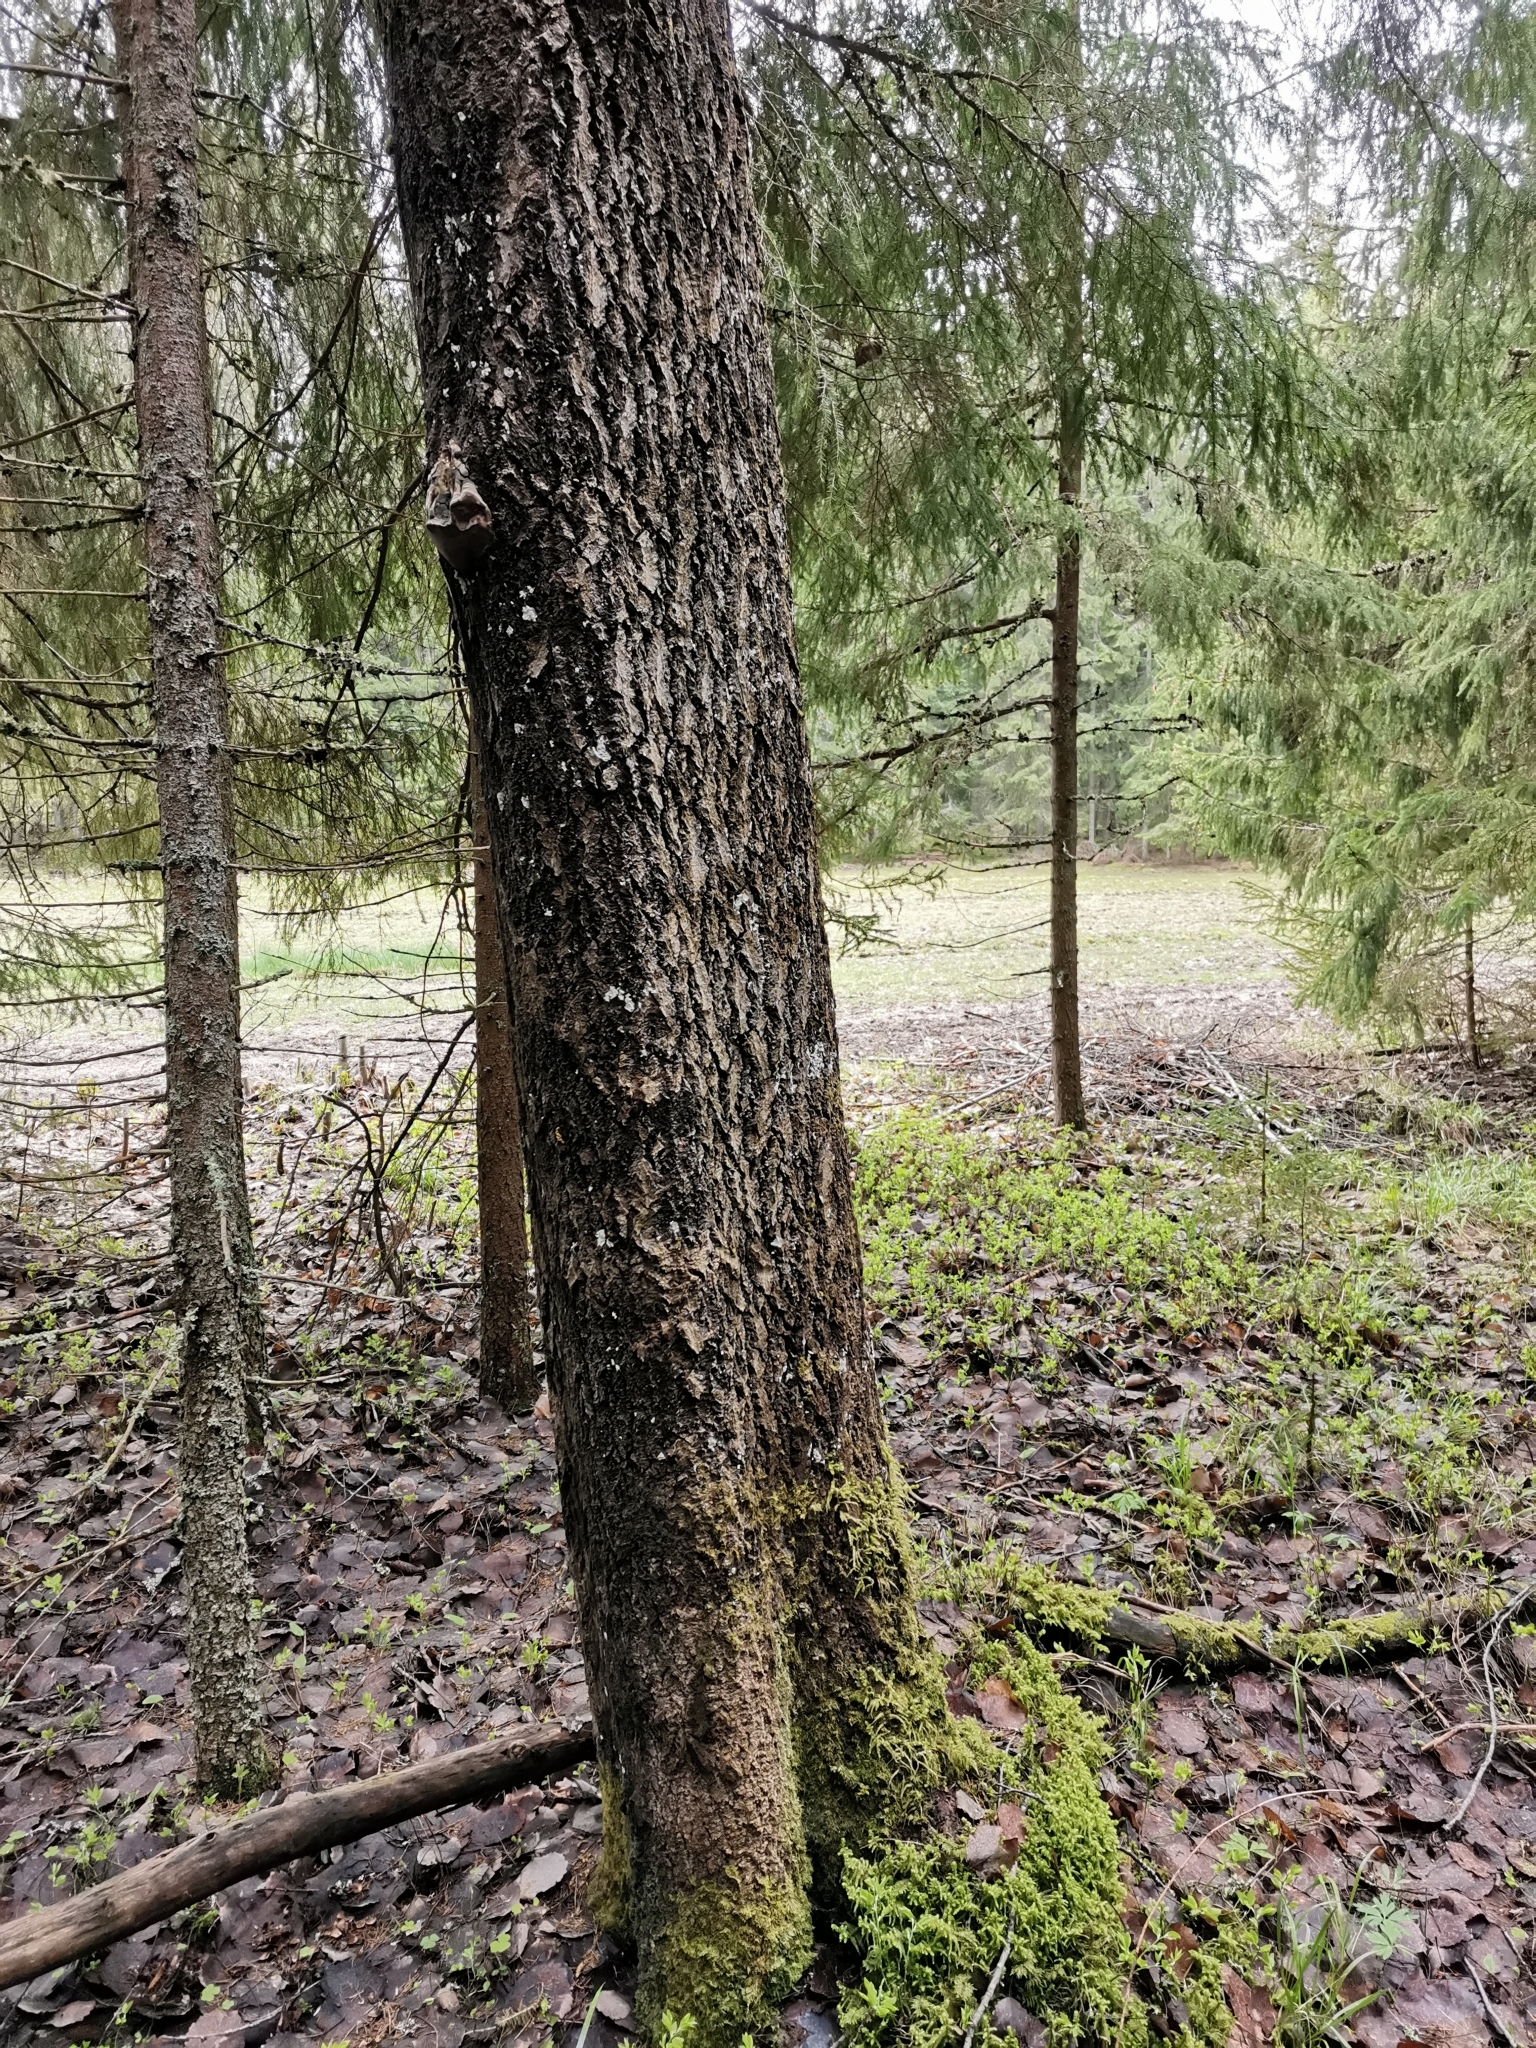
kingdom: Animalia
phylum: Chordata
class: Mammalia
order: Rodentia
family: Sciuridae
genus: Pteromys
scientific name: Pteromys volans
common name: Siberian flying squirrel
